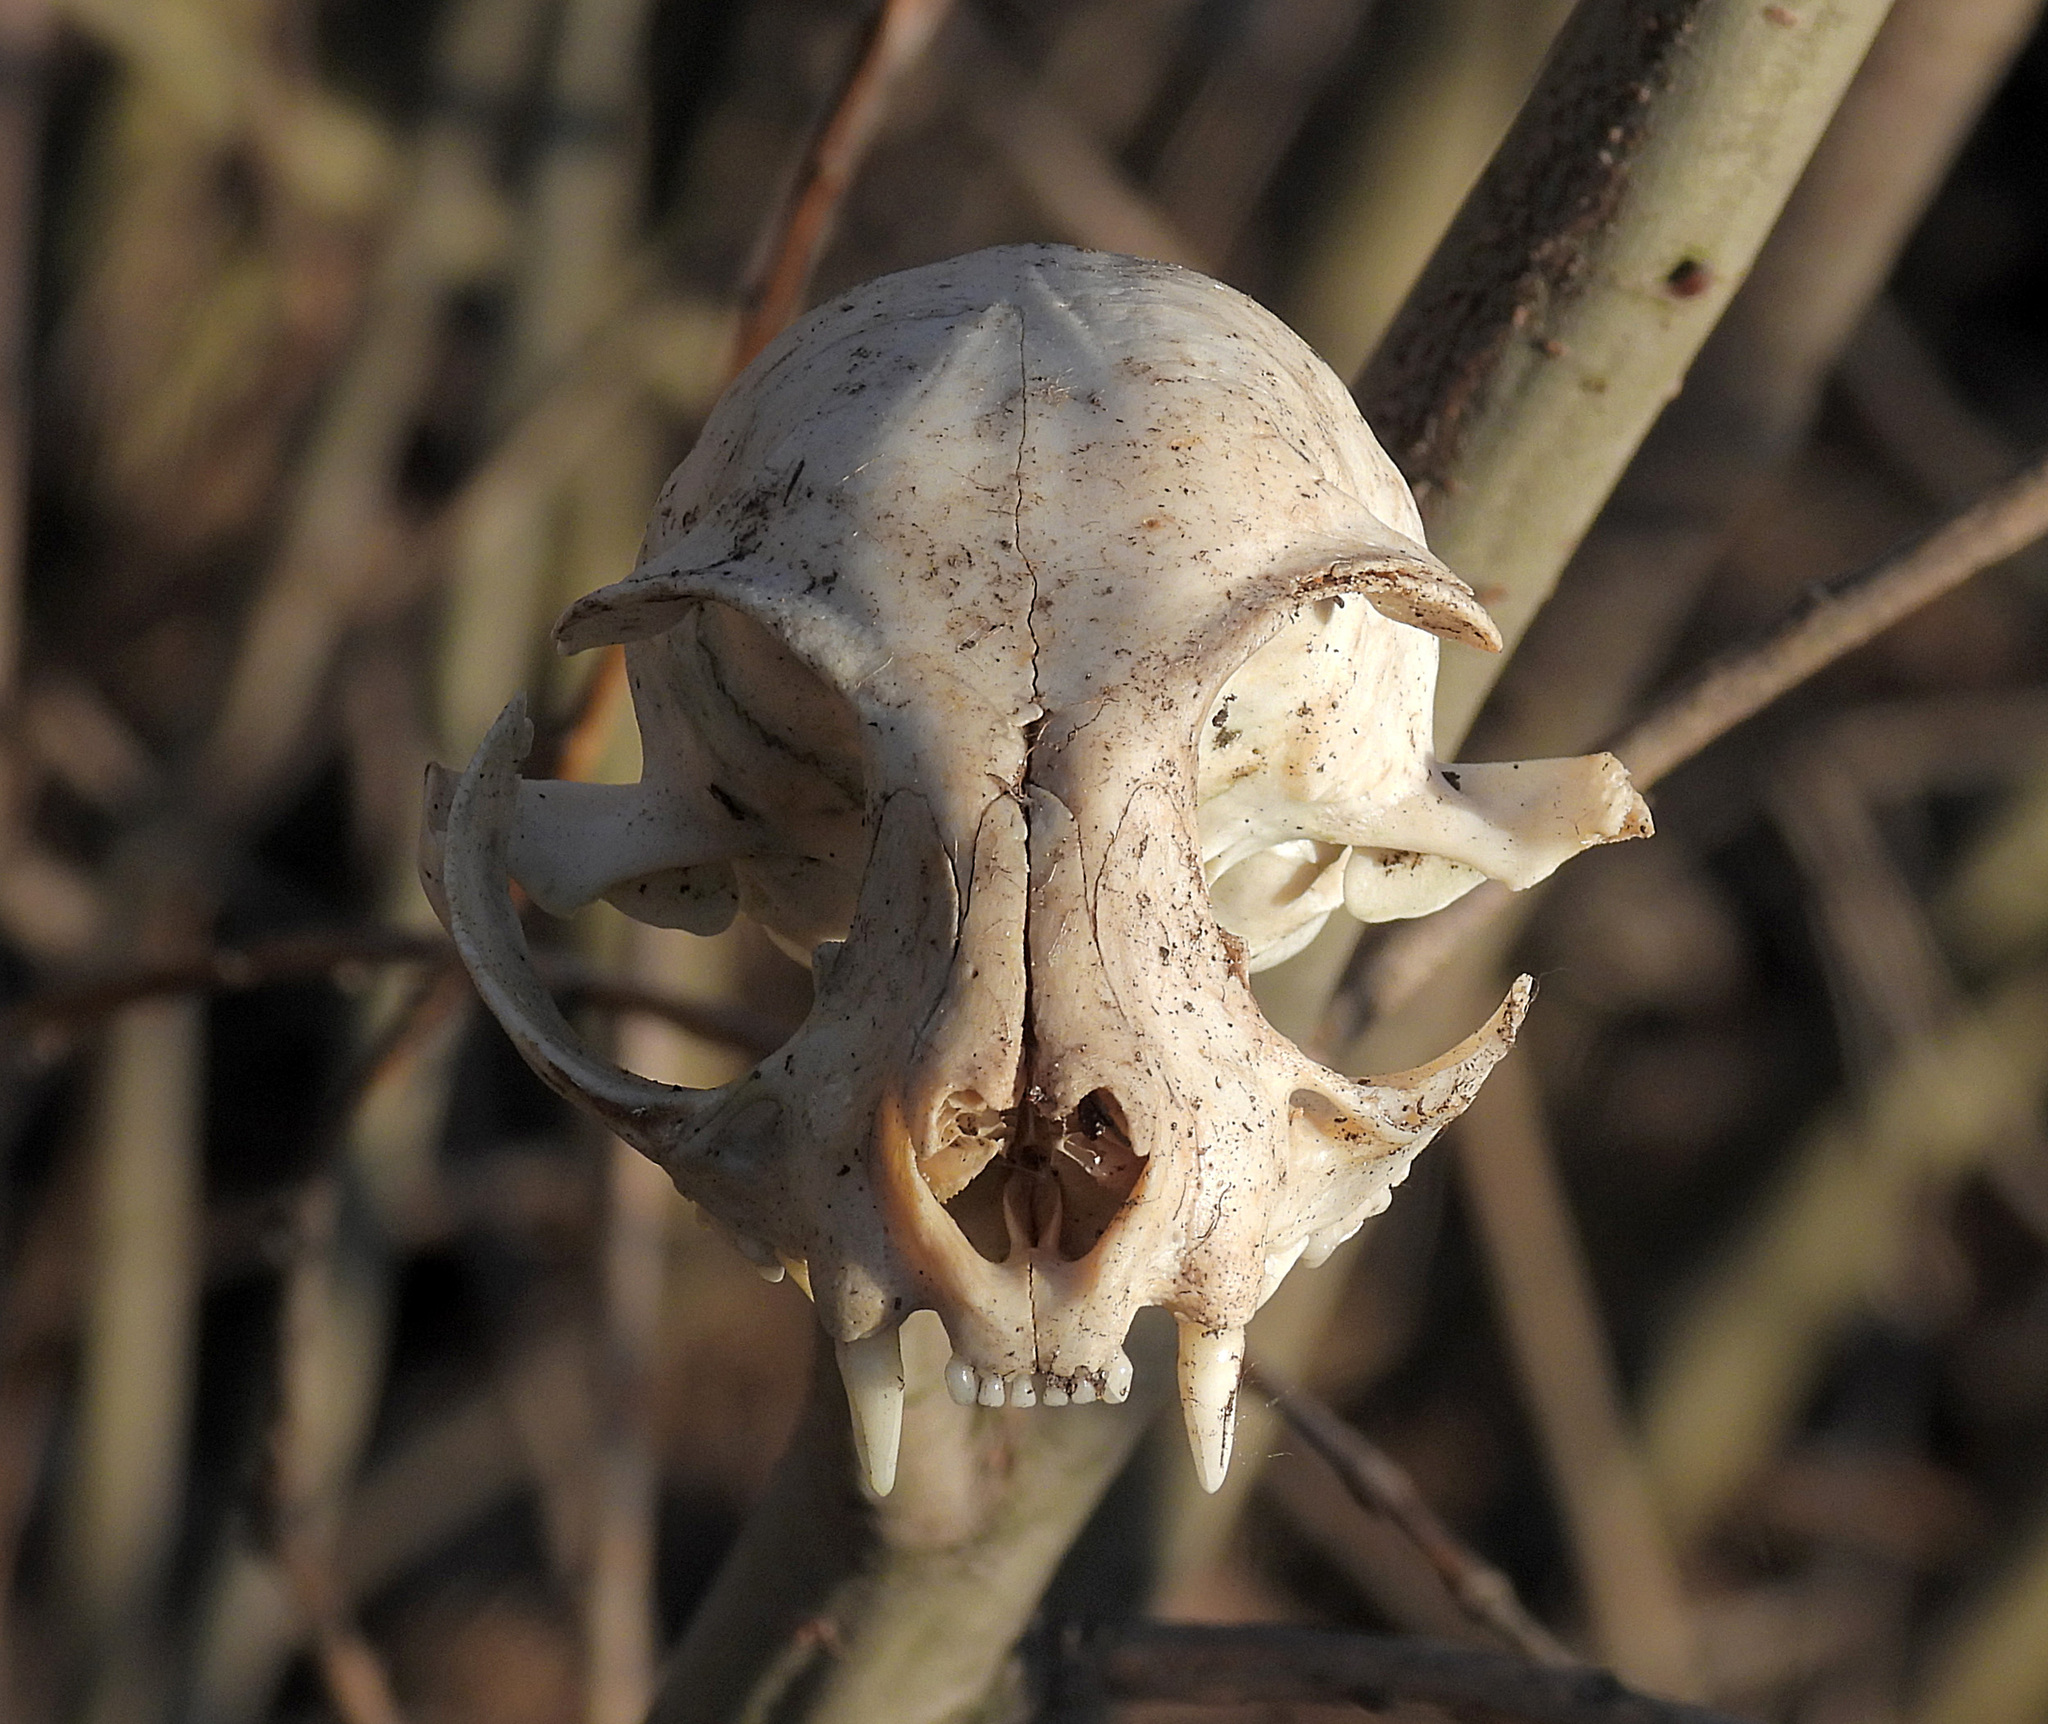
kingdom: Animalia
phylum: Chordata
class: Mammalia
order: Carnivora
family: Felidae
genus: Felis
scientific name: Felis catus
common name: Domestic cat
